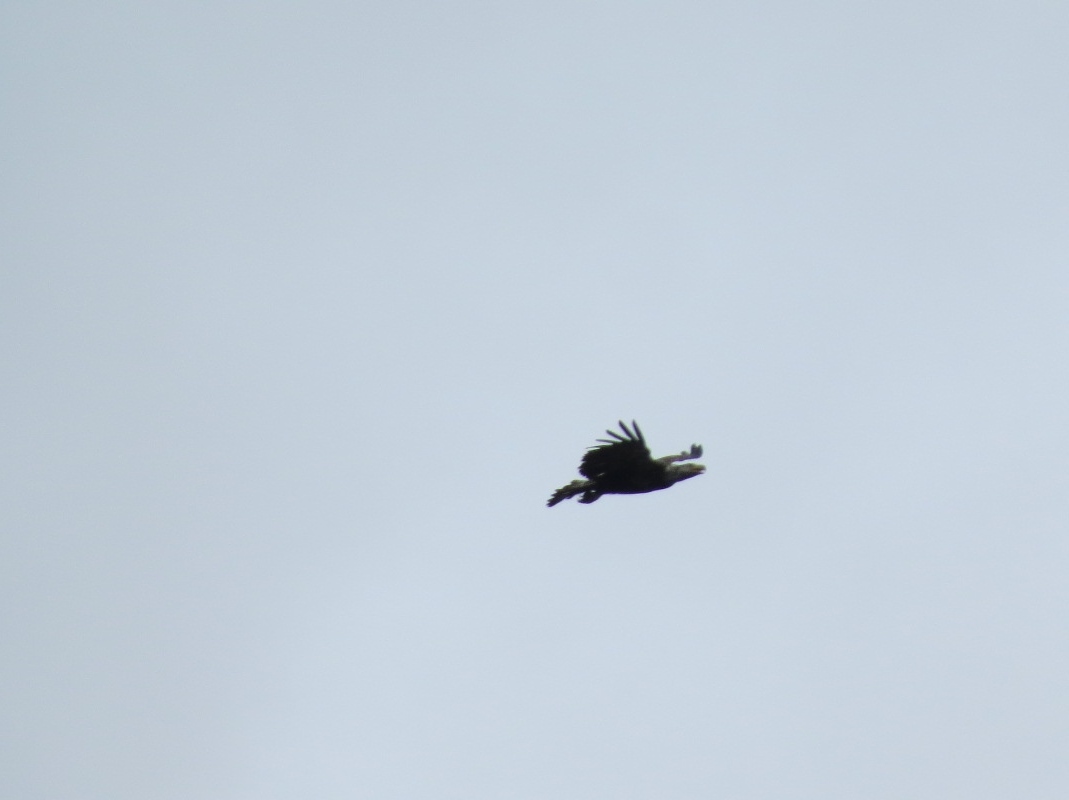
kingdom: Animalia
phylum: Chordata
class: Aves
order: Accipitriformes
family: Accipitridae
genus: Haliaeetus
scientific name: Haliaeetus leucocephalus
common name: Bald eagle
